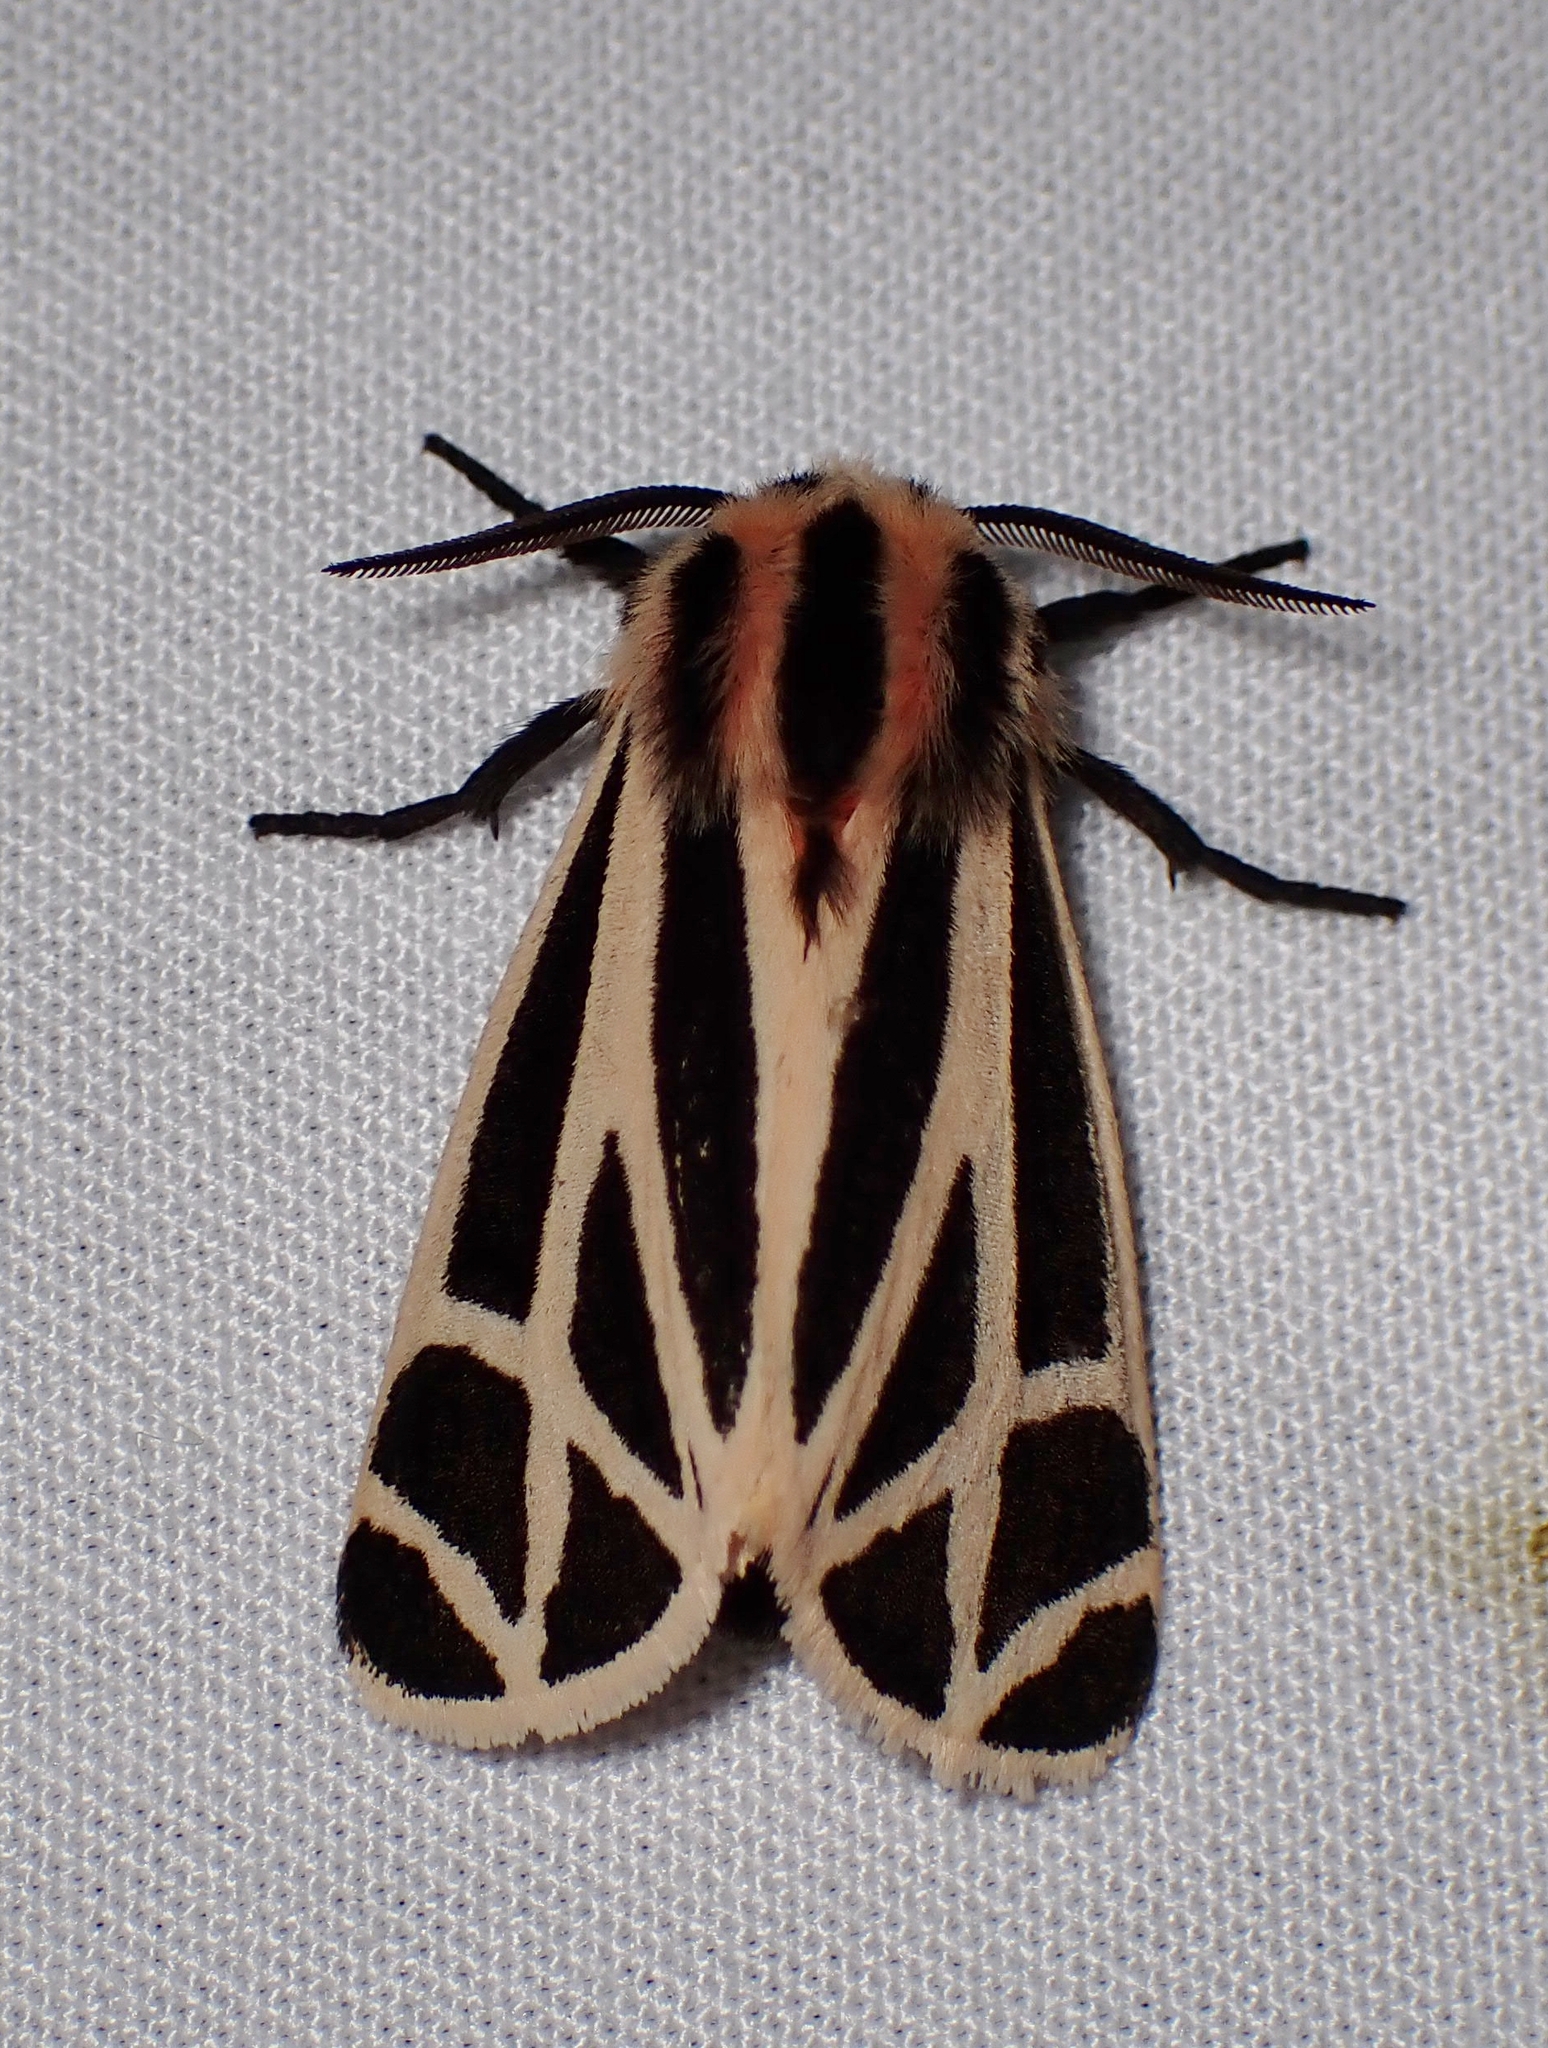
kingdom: Animalia
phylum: Arthropoda
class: Insecta
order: Lepidoptera
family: Erebidae
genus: Apantesis
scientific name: Apantesis phalerata
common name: Harnessed tiger moth
